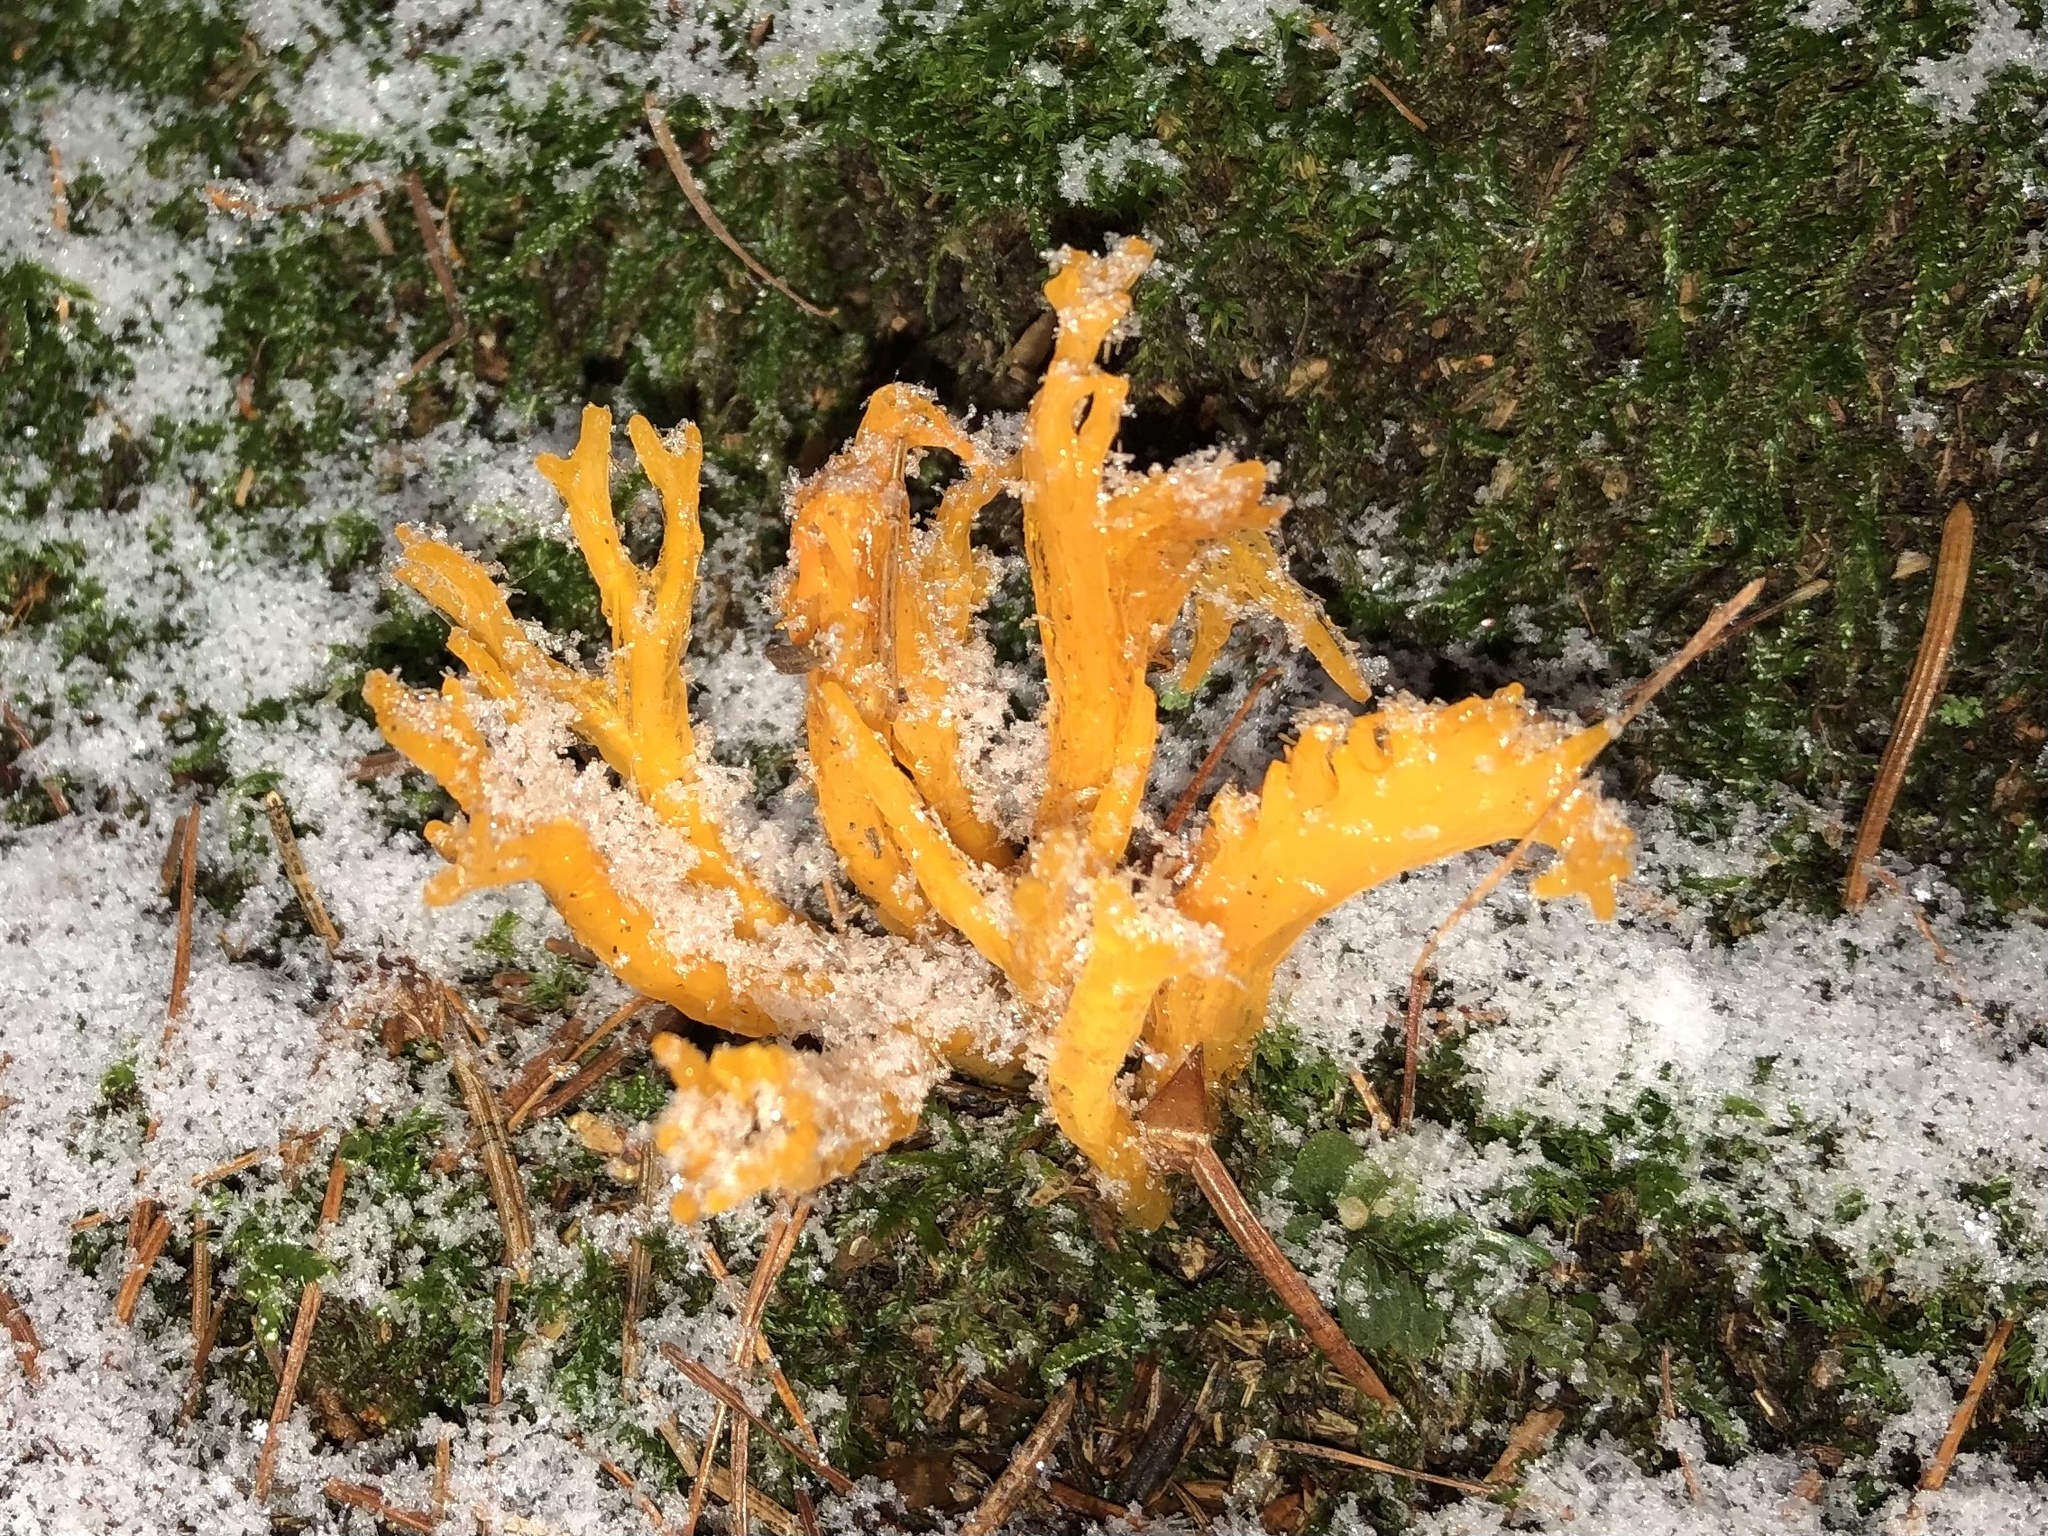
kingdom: Fungi
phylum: Basidiomycota
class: Dacrymycetes
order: Dacrymycetales
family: Dacrymycetaceae
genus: Calocera
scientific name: Calocera viscosa
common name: Yellow stagshorn
